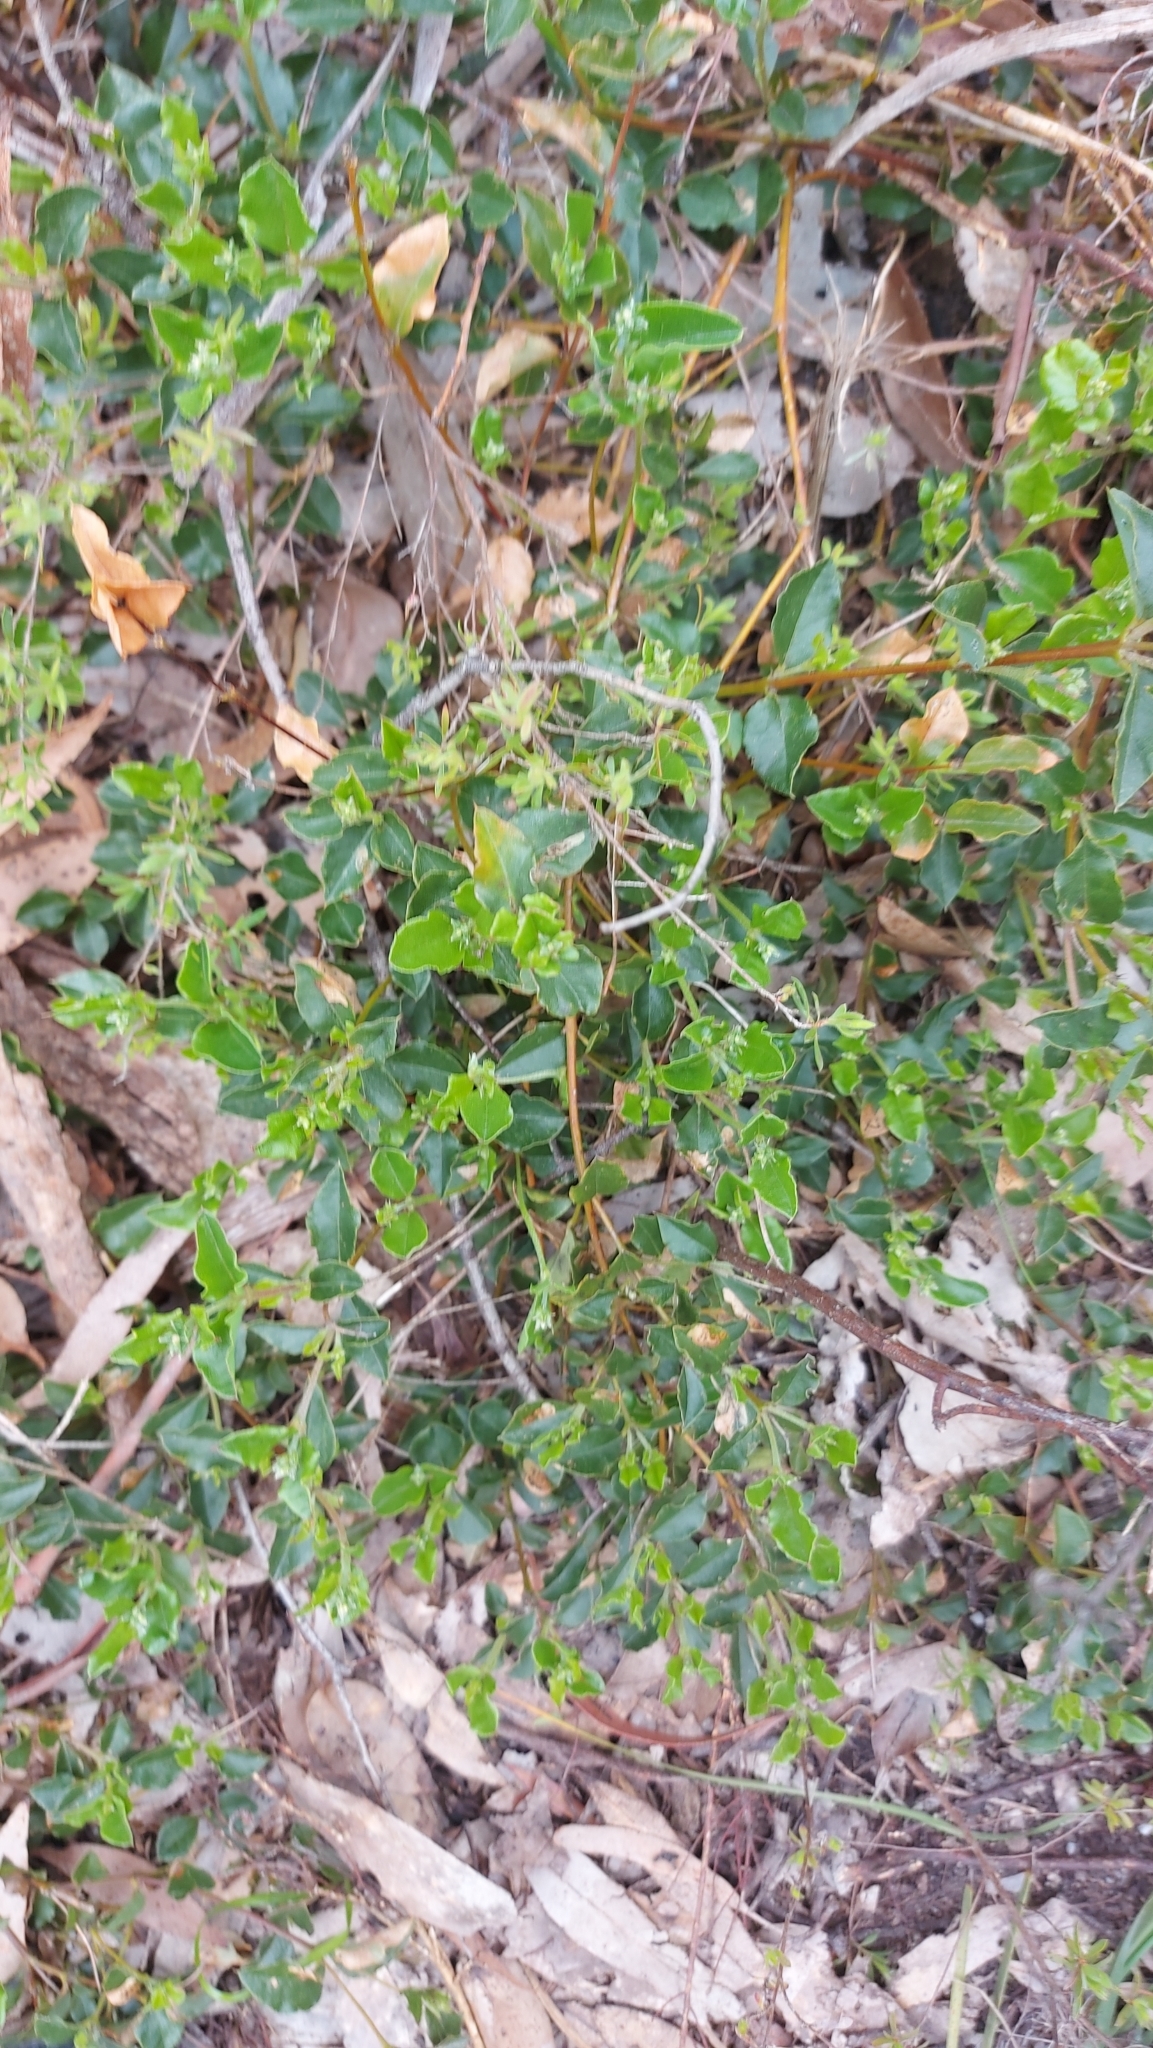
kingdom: Plantae
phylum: Tracheophyta
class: Magnoliopsida
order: Fabales
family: Fabaceae
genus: Podolobium
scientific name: Podolobium procumbens
